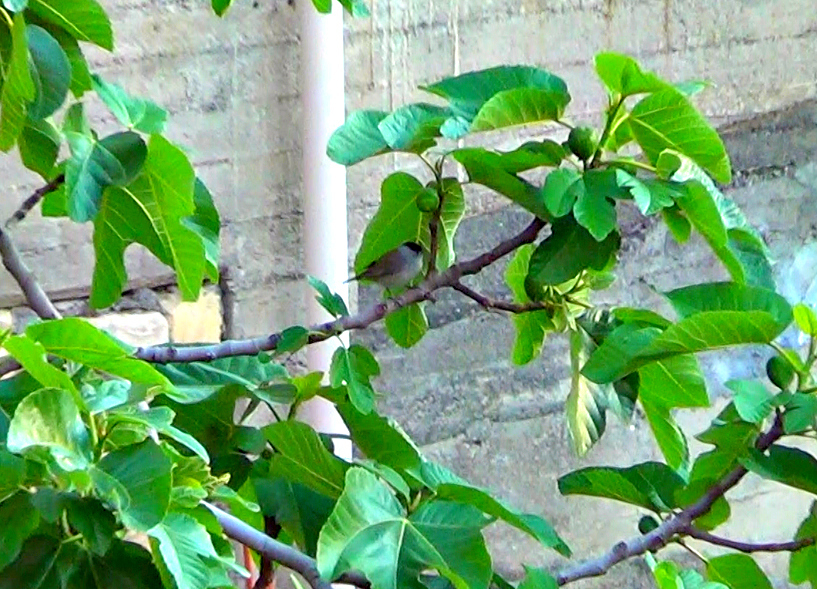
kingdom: Animalia
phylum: Chordata
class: Aves
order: Passeriformes
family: Sylviidae
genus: Sylvia
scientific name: Sylvia atricapilla
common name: Eurasian blackcap
